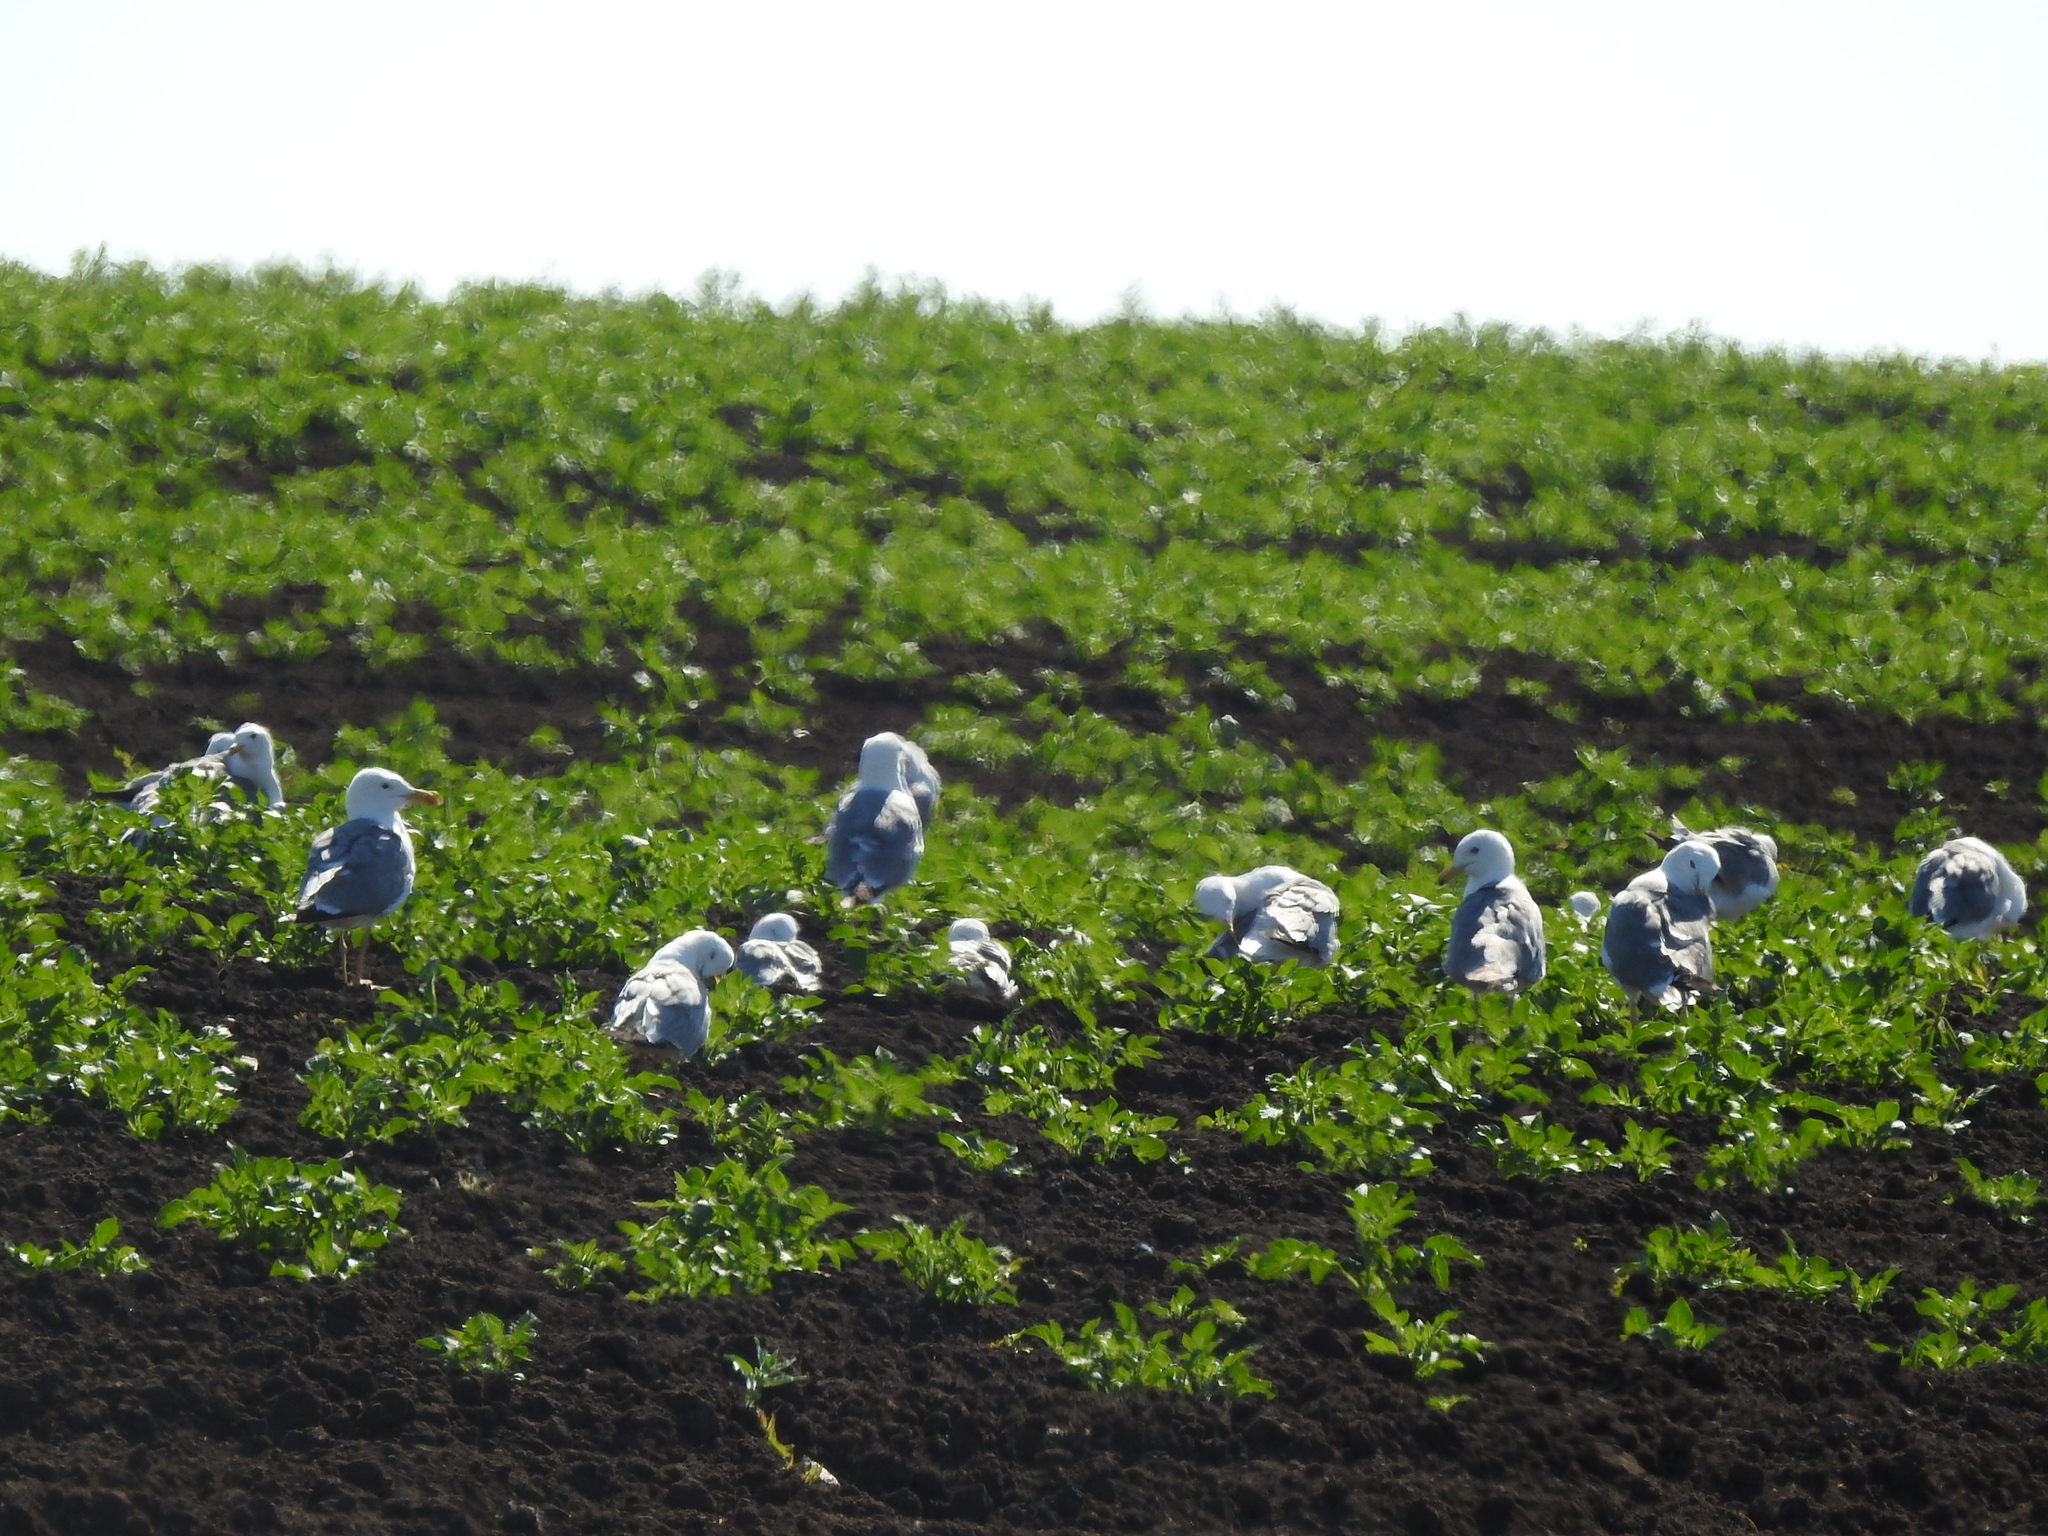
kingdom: Animalia
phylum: Chordata
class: Aves
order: Charadriiformes
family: Laridae
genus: Larus
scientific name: Larus fuscus
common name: Lesser black-backed gull
